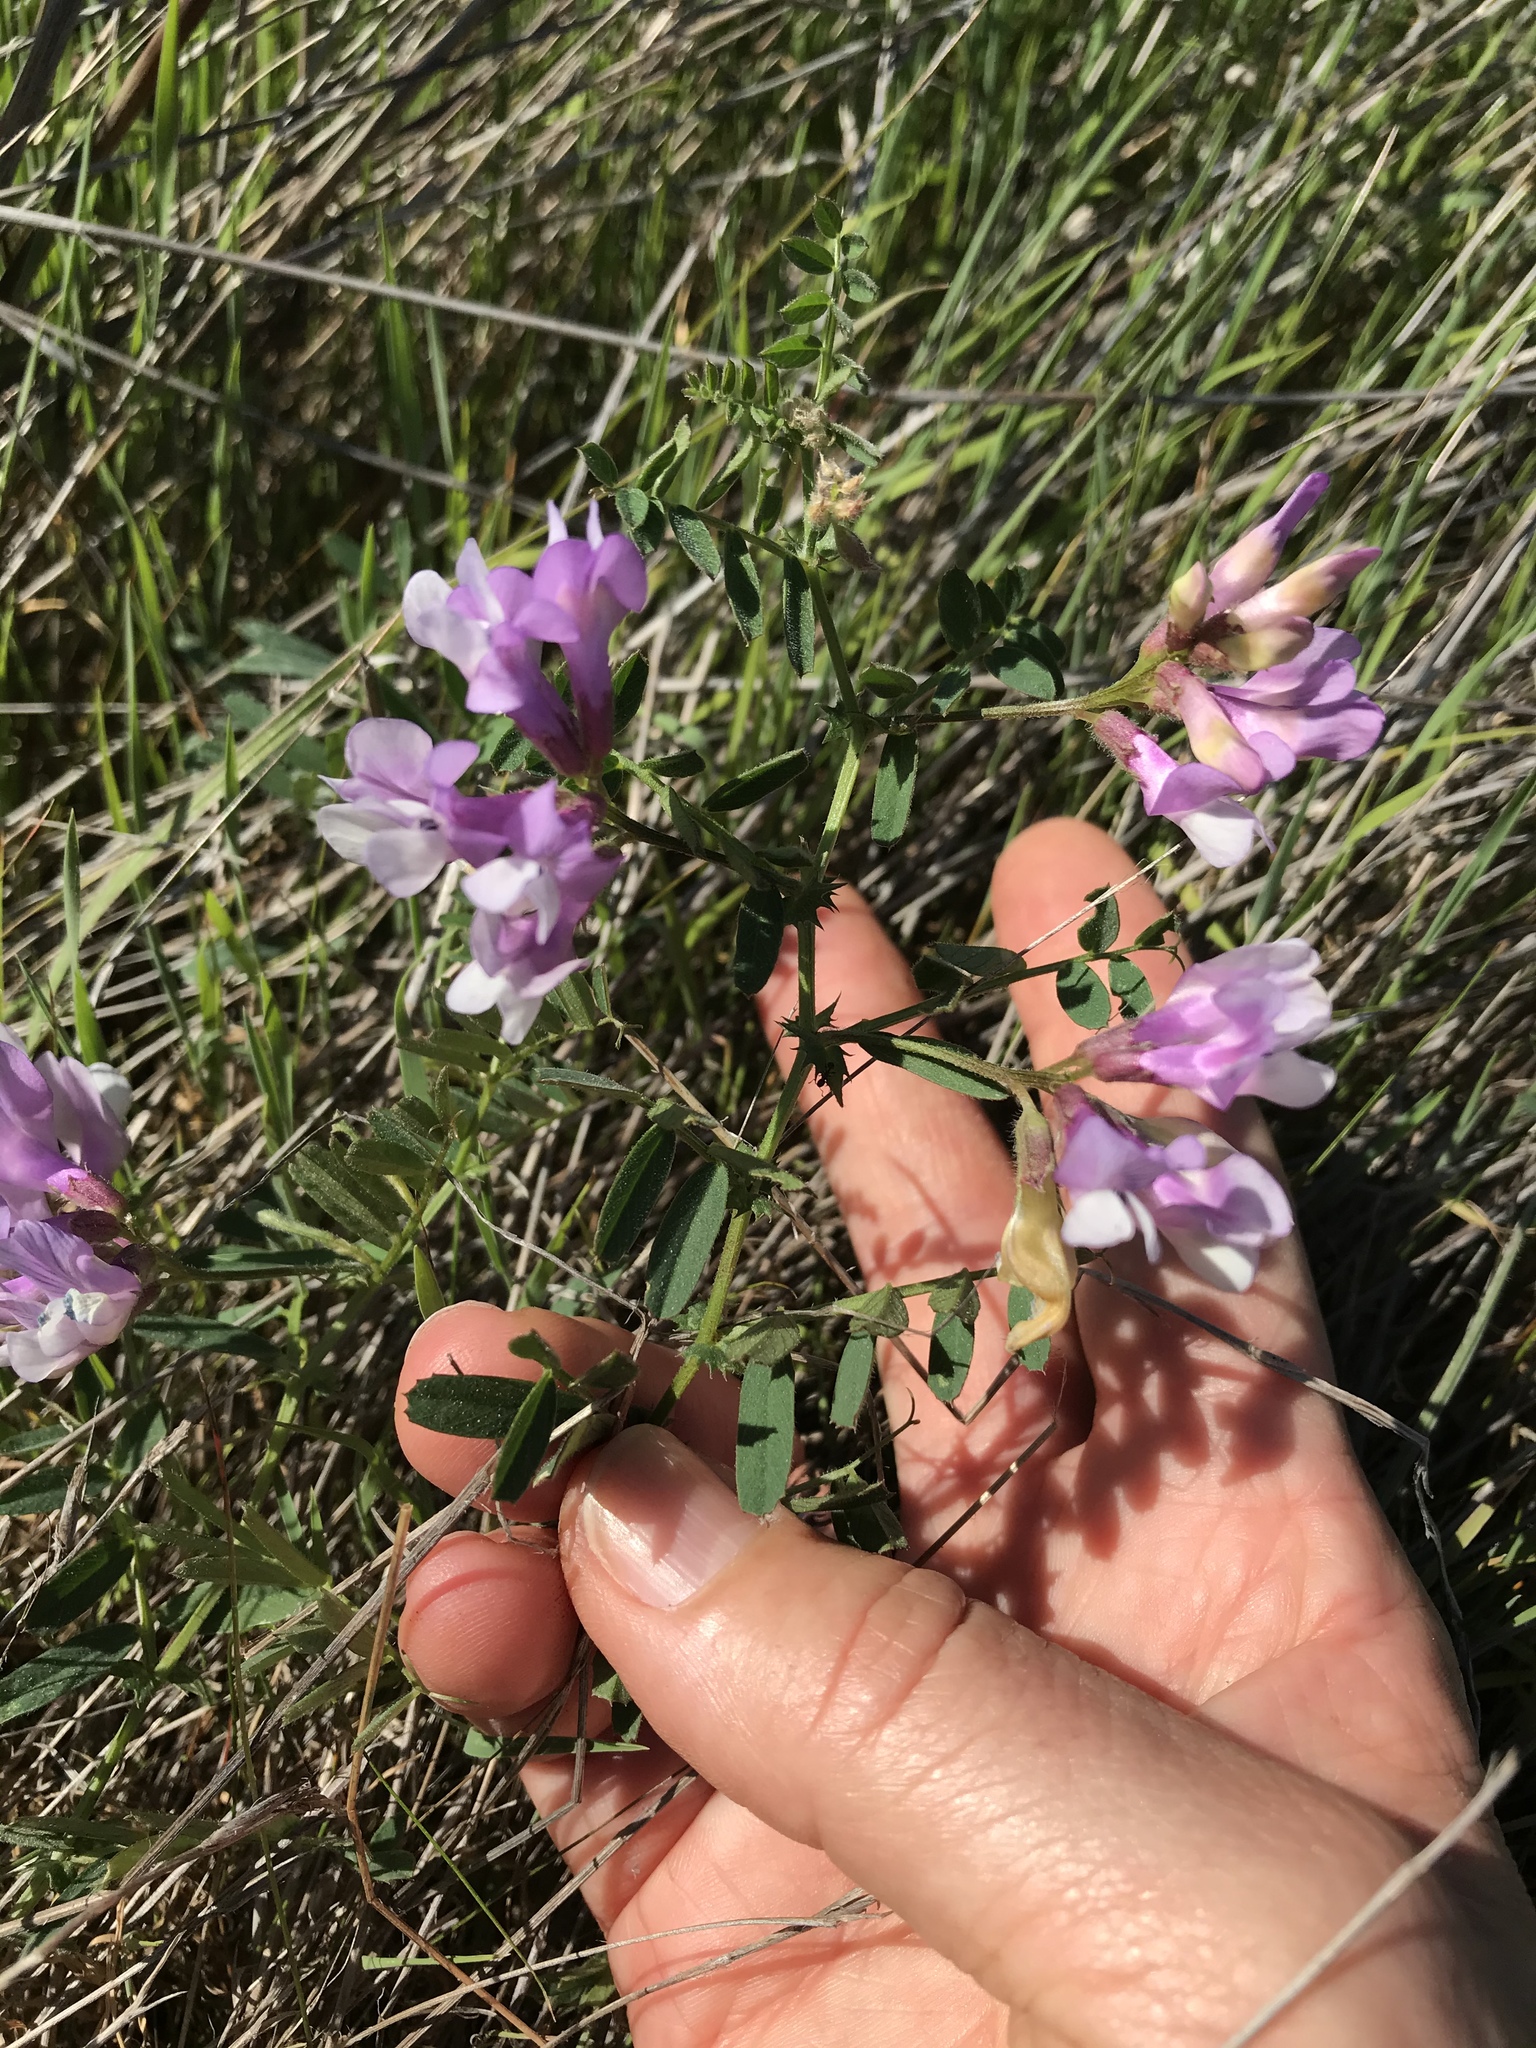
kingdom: Plantae
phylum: Tracheophyta
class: Magnoliopsida
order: Fabales
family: Fabaceae
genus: Vicia
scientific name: Vicia americana
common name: American vetch
